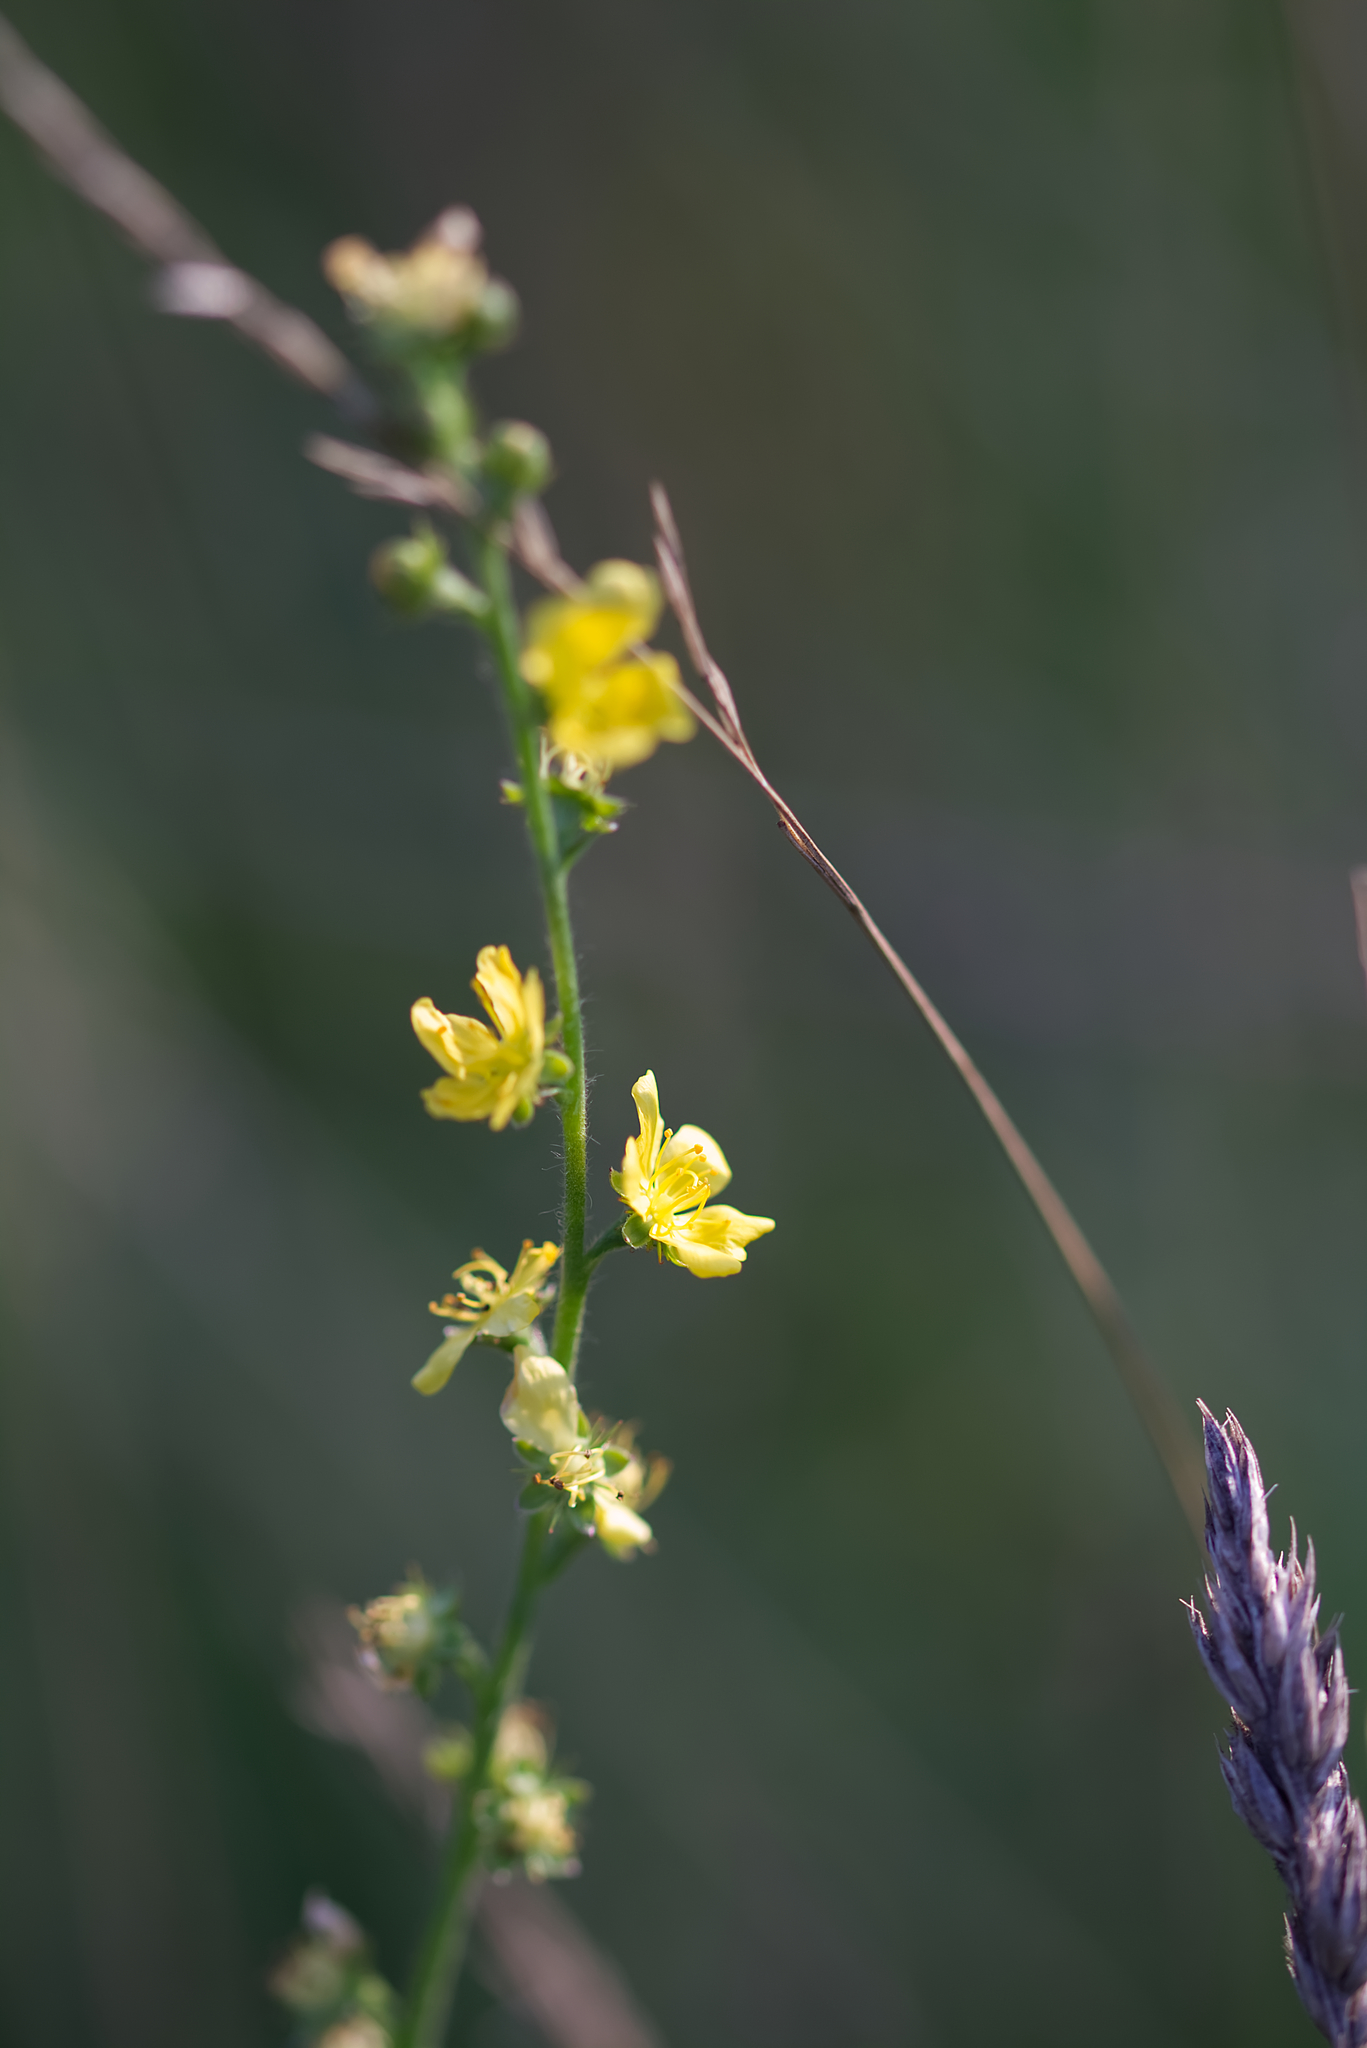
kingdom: Plantae
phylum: Tracheophyta
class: Magnoliopsida
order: Rosales
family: Rosaceae
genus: Agrimonia
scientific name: Agrimonia eupatoria
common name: Agrimony
